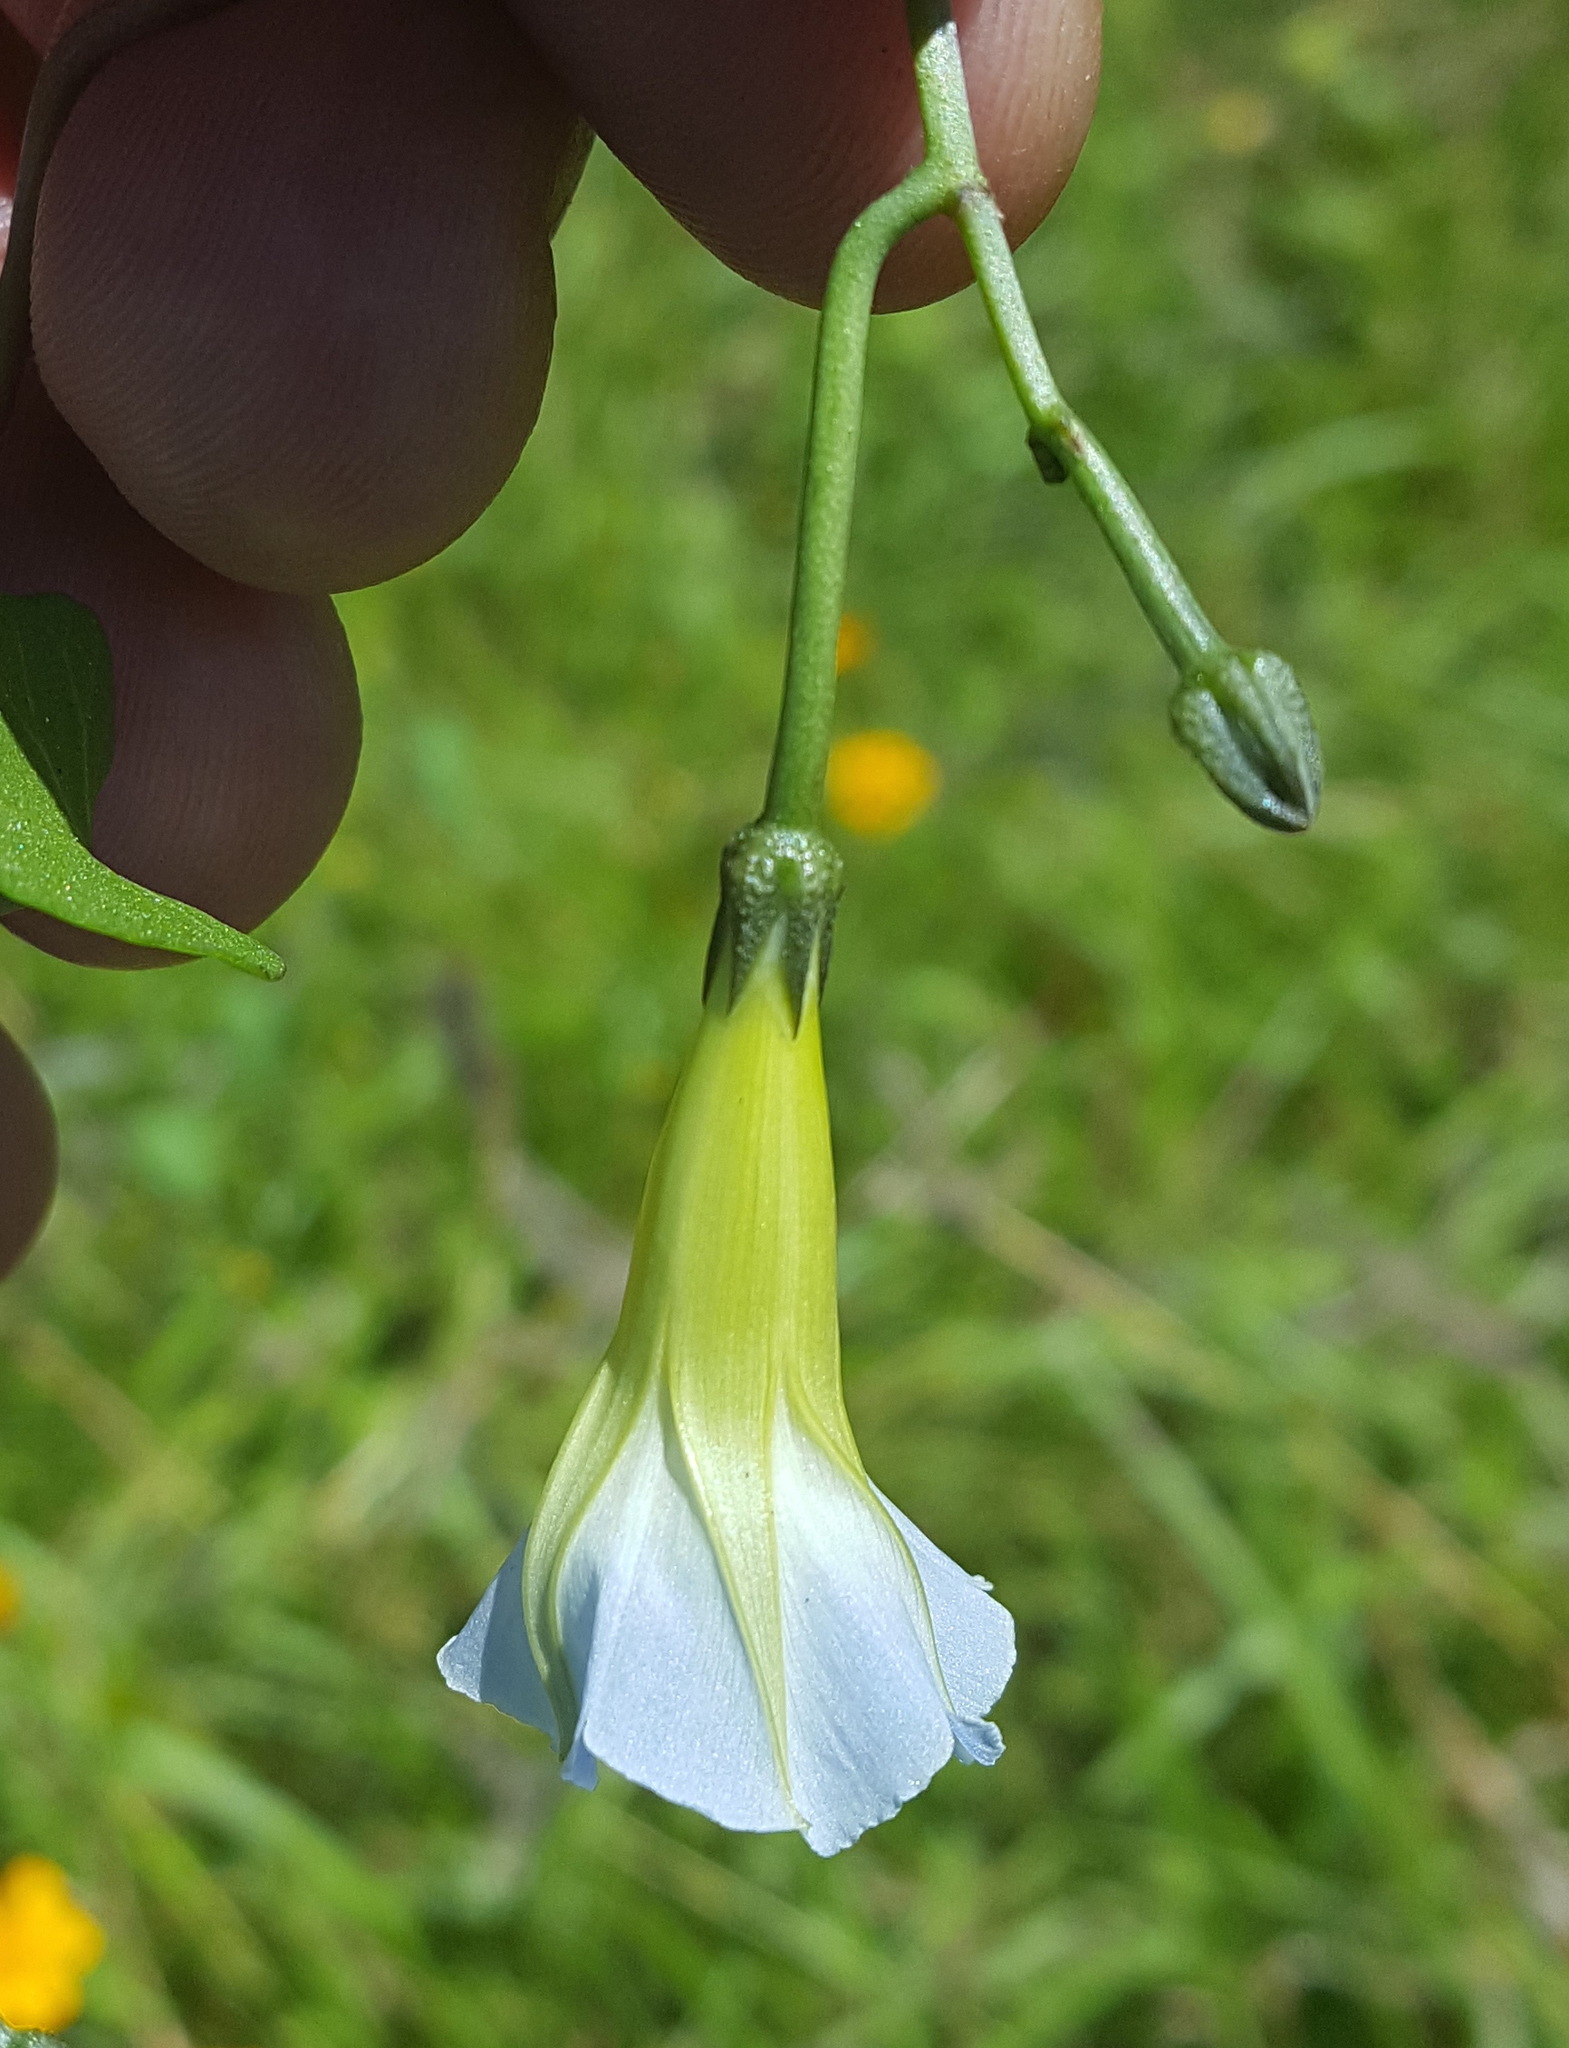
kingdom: Plantae
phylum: Tracheophyta
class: Magnoliopsida
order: Solanales
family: Convolvulaceae
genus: Ipomoea
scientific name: Ipomoea cardiophylla
